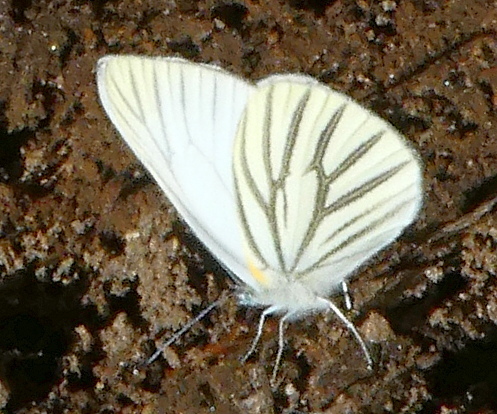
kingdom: Animalia
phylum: Arthropoda
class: Insecta
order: Lepidoptera
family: Pieridae
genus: Pieris
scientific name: Pieris oleracea
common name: Mustard white
